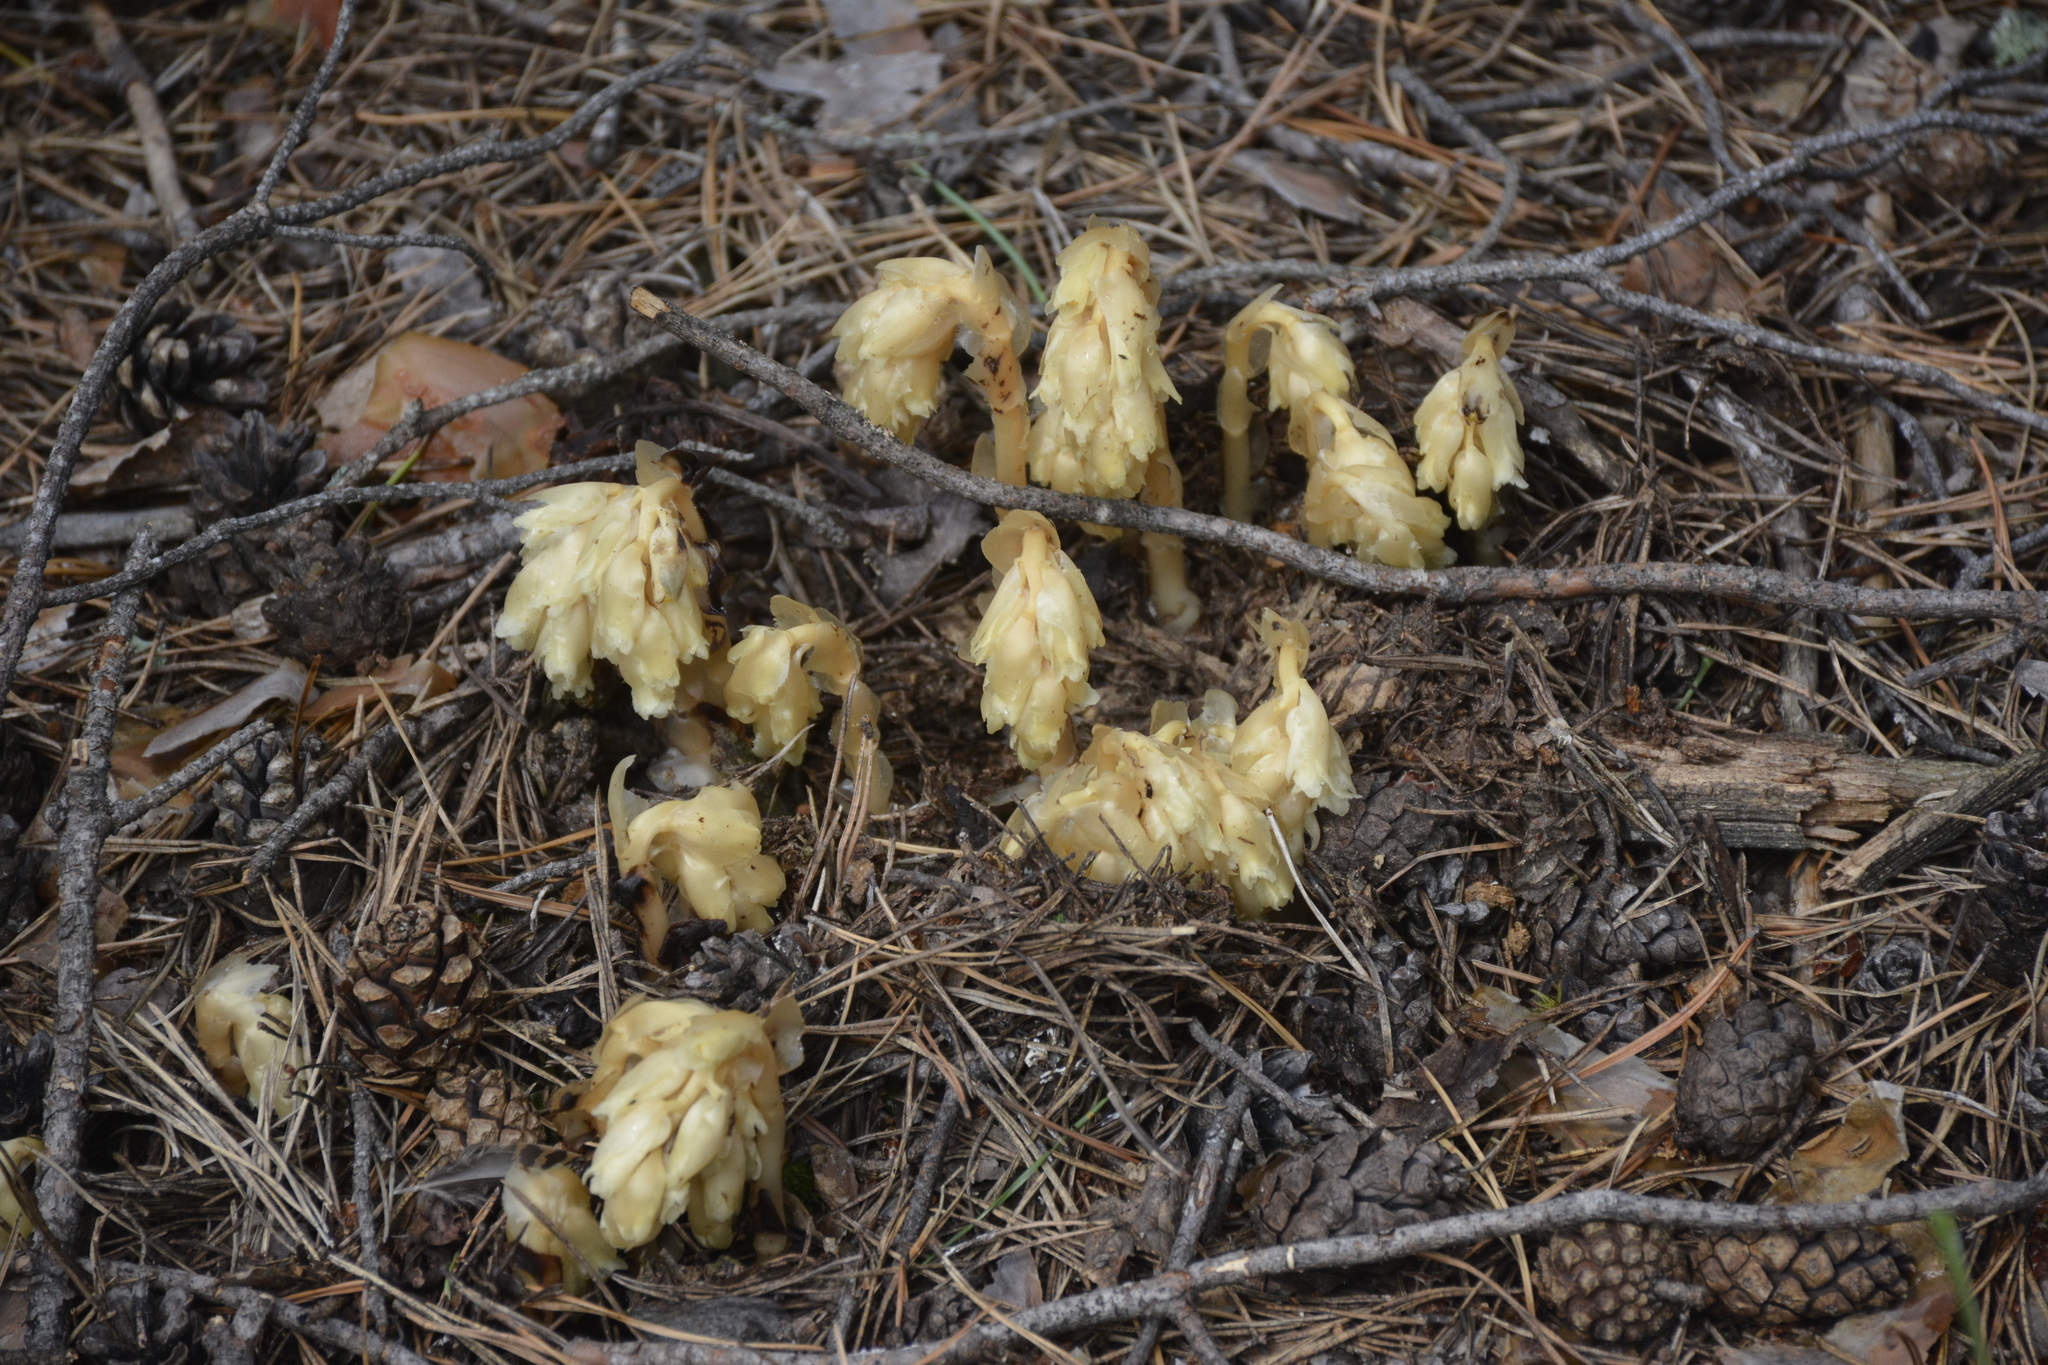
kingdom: Plantae
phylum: Tracheophyta
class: Magnoliopsida
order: Ericales
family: Ericaceae
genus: Hypopitys
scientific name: Hypopitys monotropa
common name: Yellow bird's-nest
